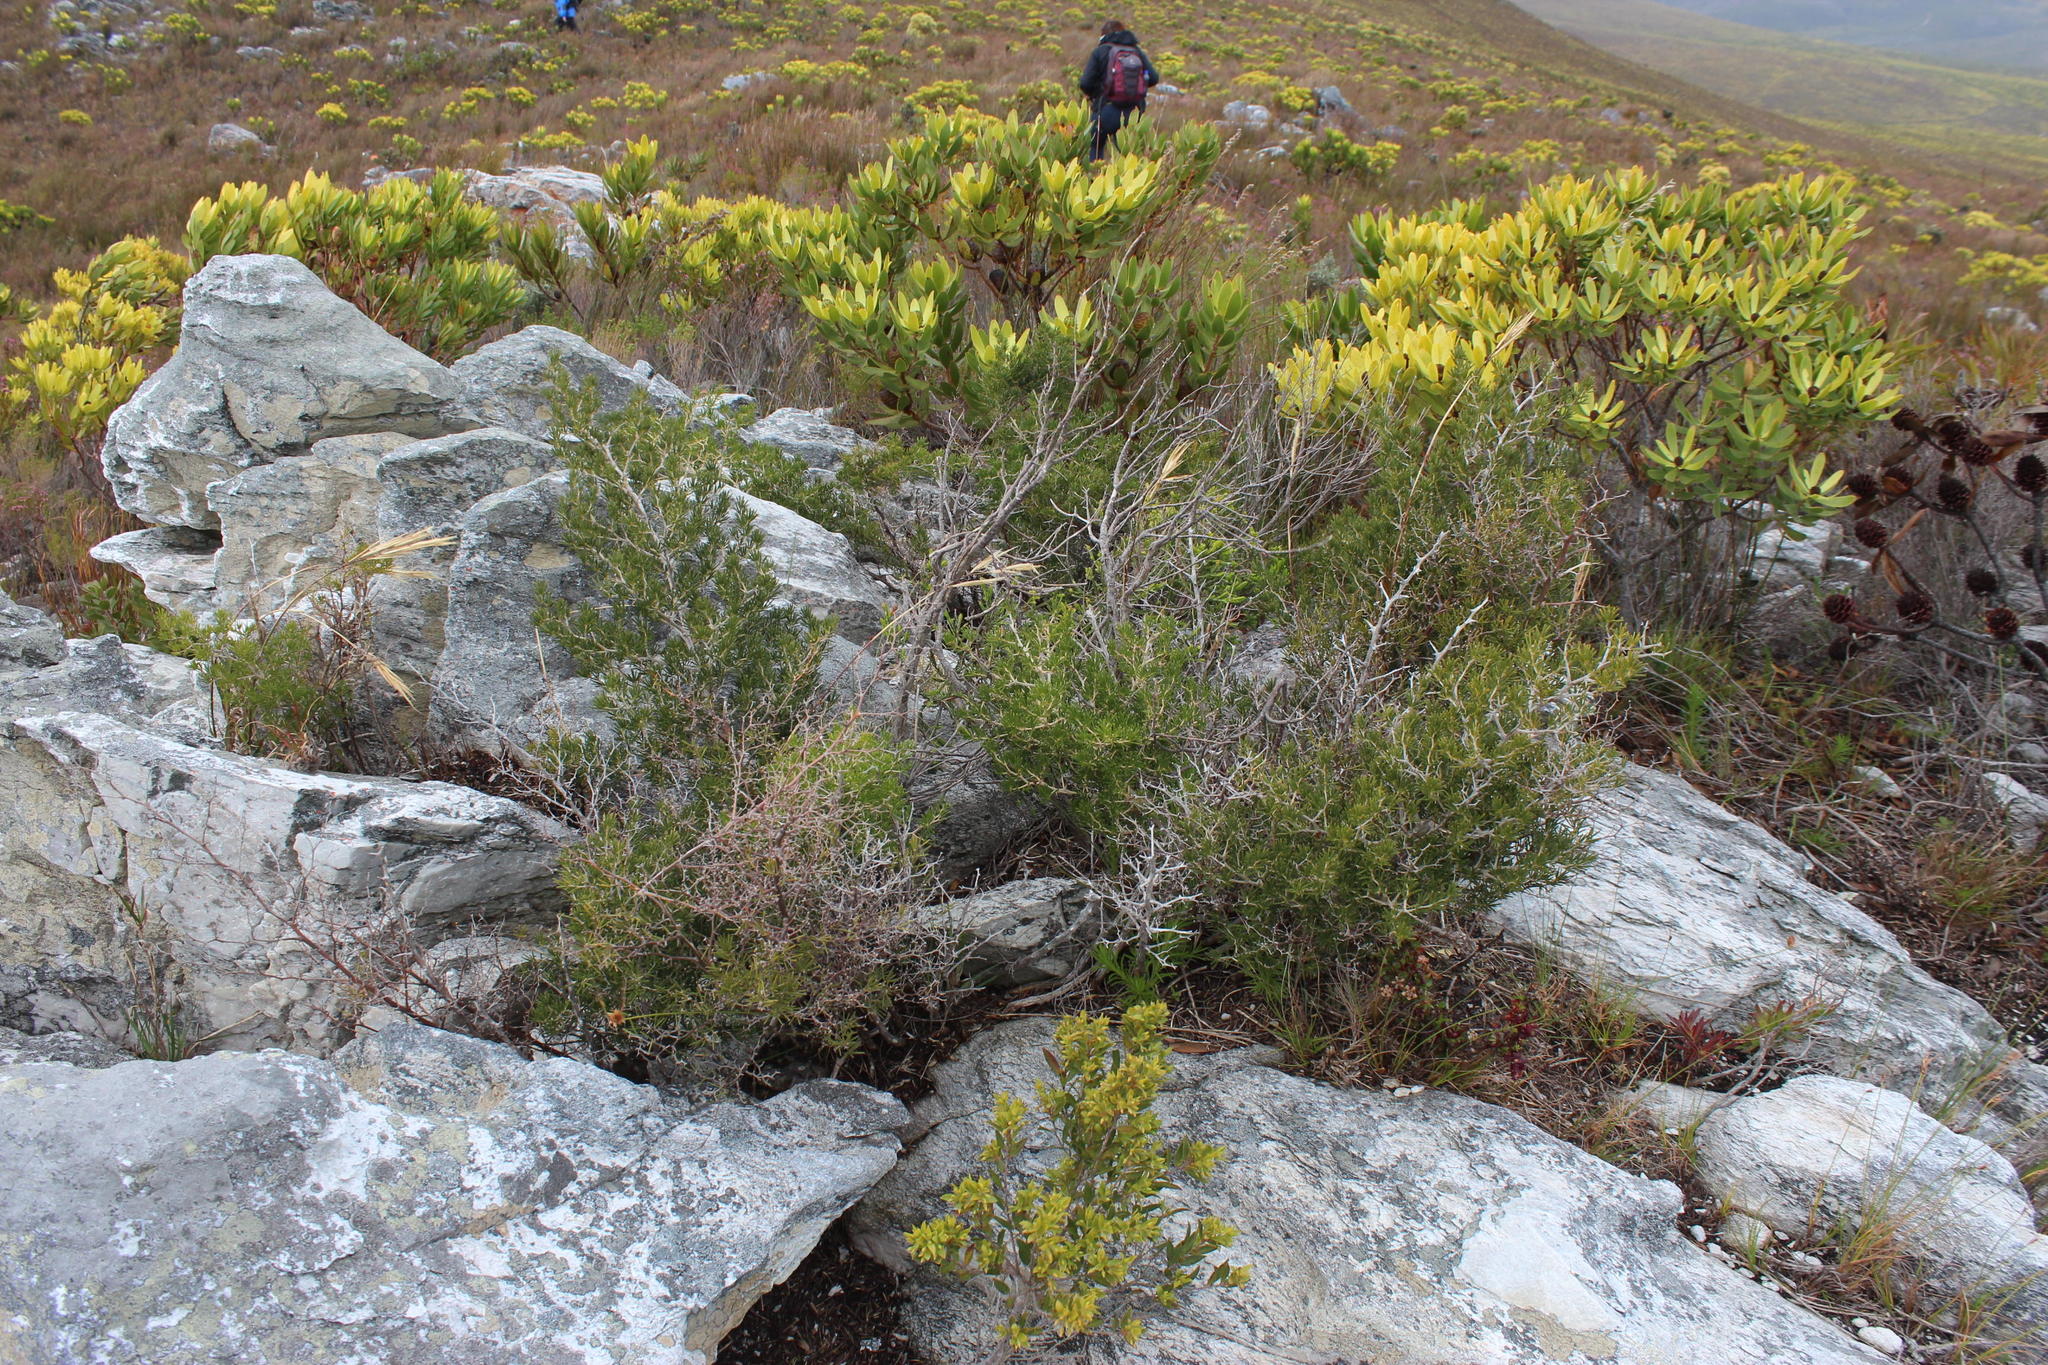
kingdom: Plantae
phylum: Tracheophyta
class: Liliopsida
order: Asparagales
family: Asparagaceae
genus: Asparagus
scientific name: Asparagus lignosus
